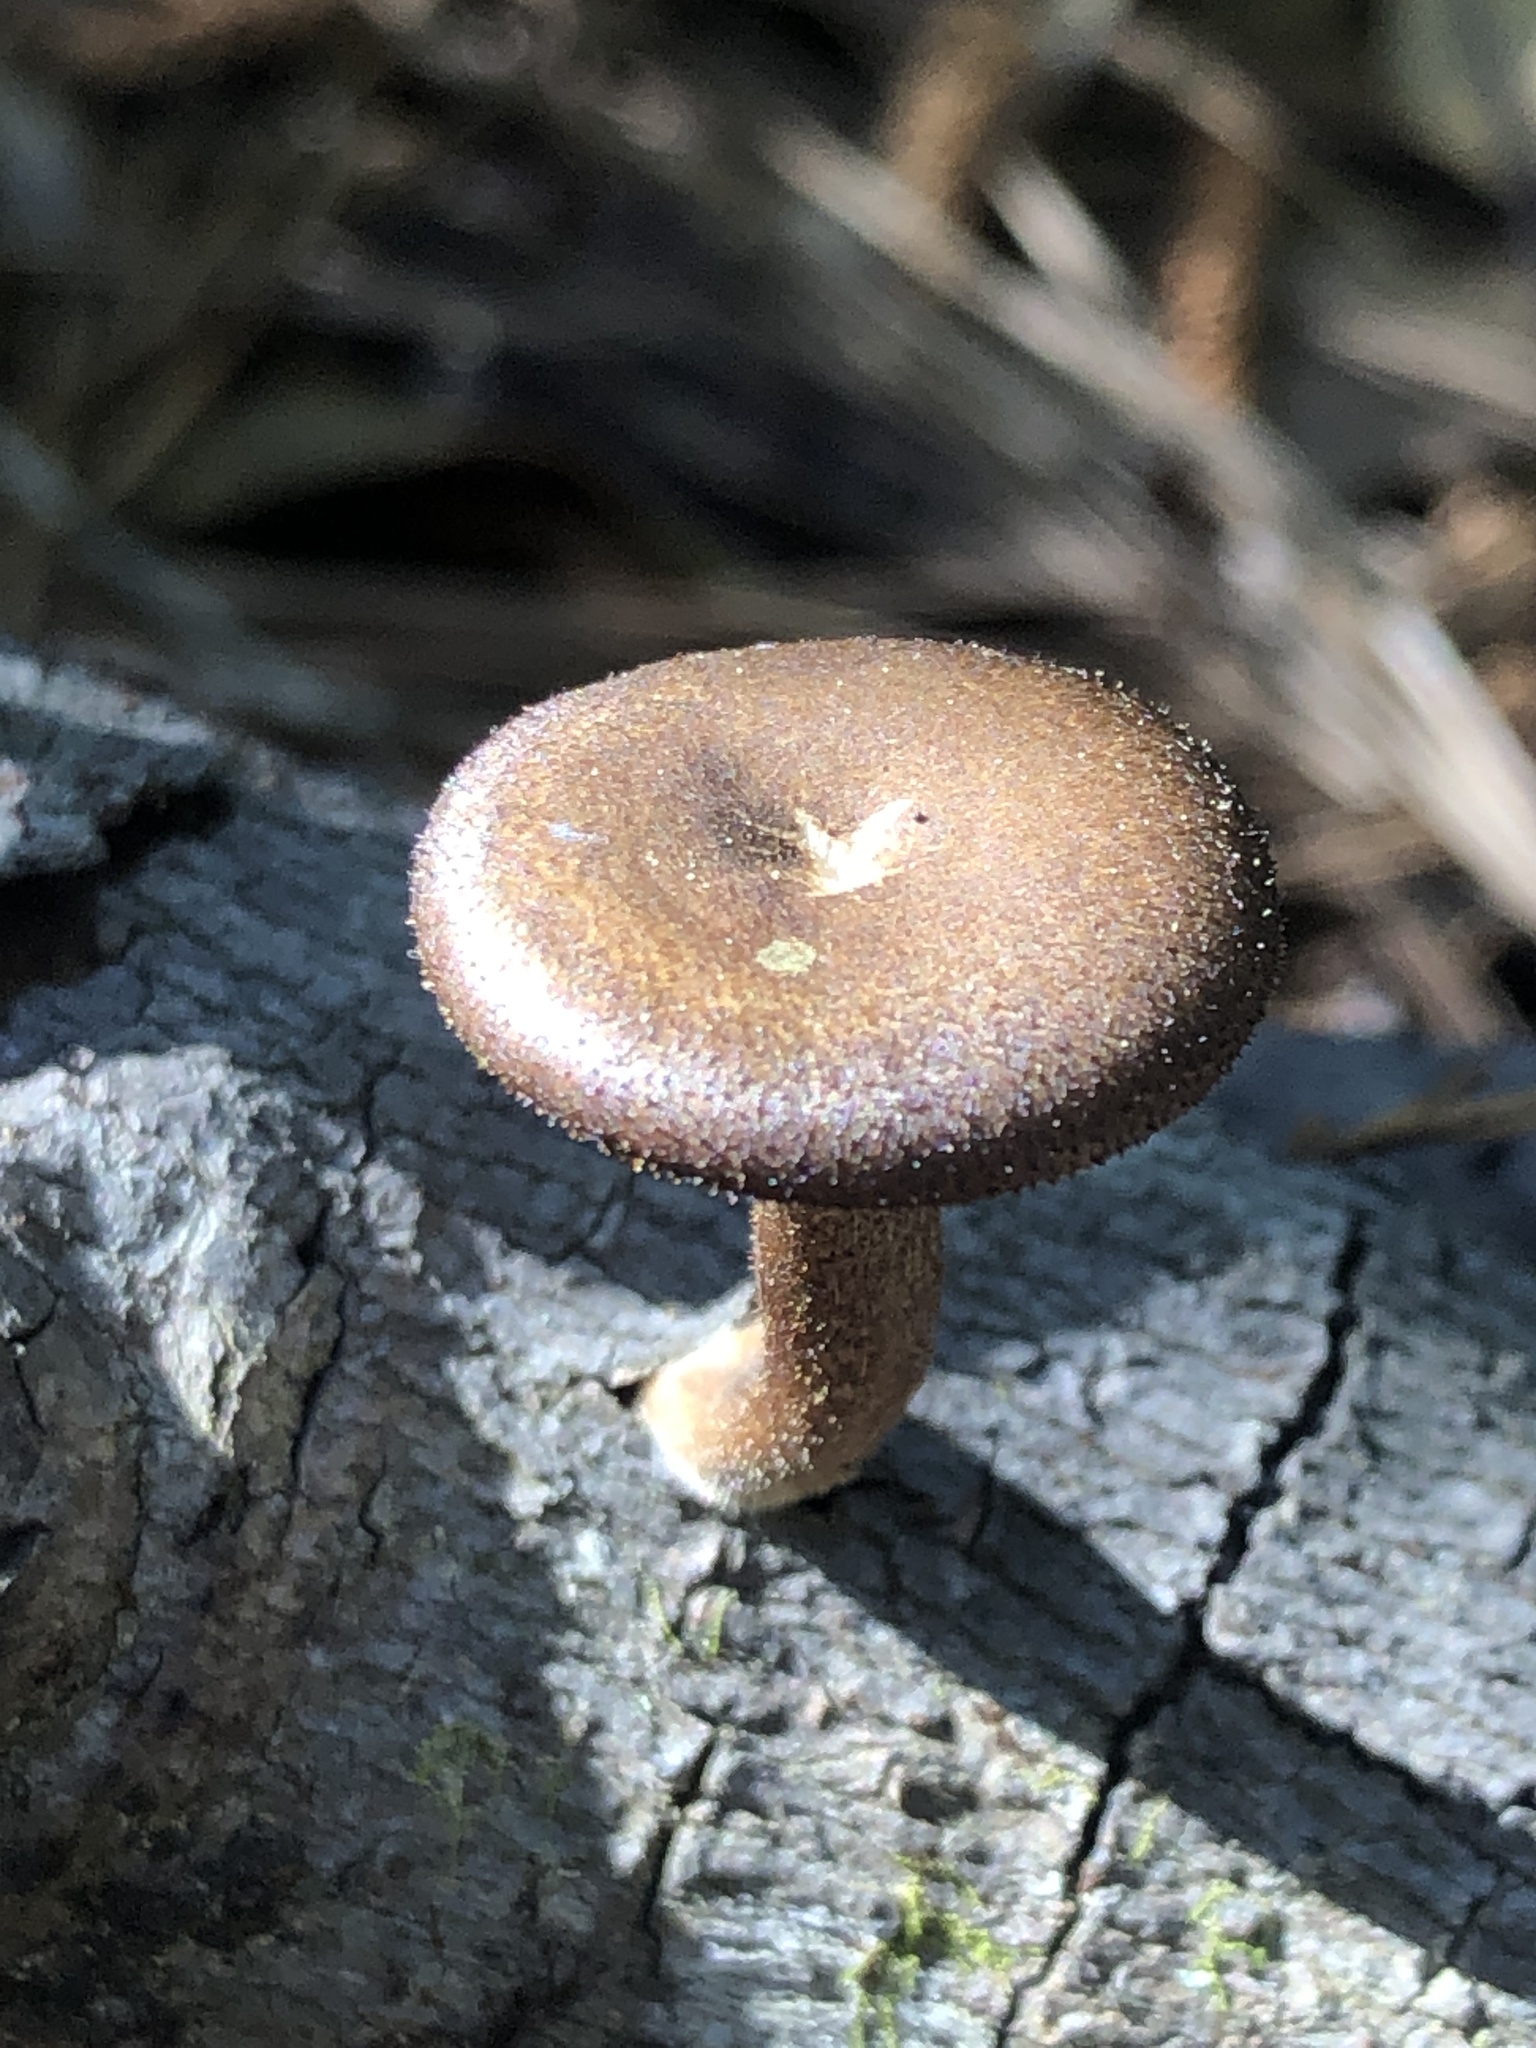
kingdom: Fungi
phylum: Basidiomycota
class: Agaricomycetes
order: Polyporales
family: Polyporaceae
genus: Lentinus
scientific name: Lentinus arcularius
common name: Spring polypore
